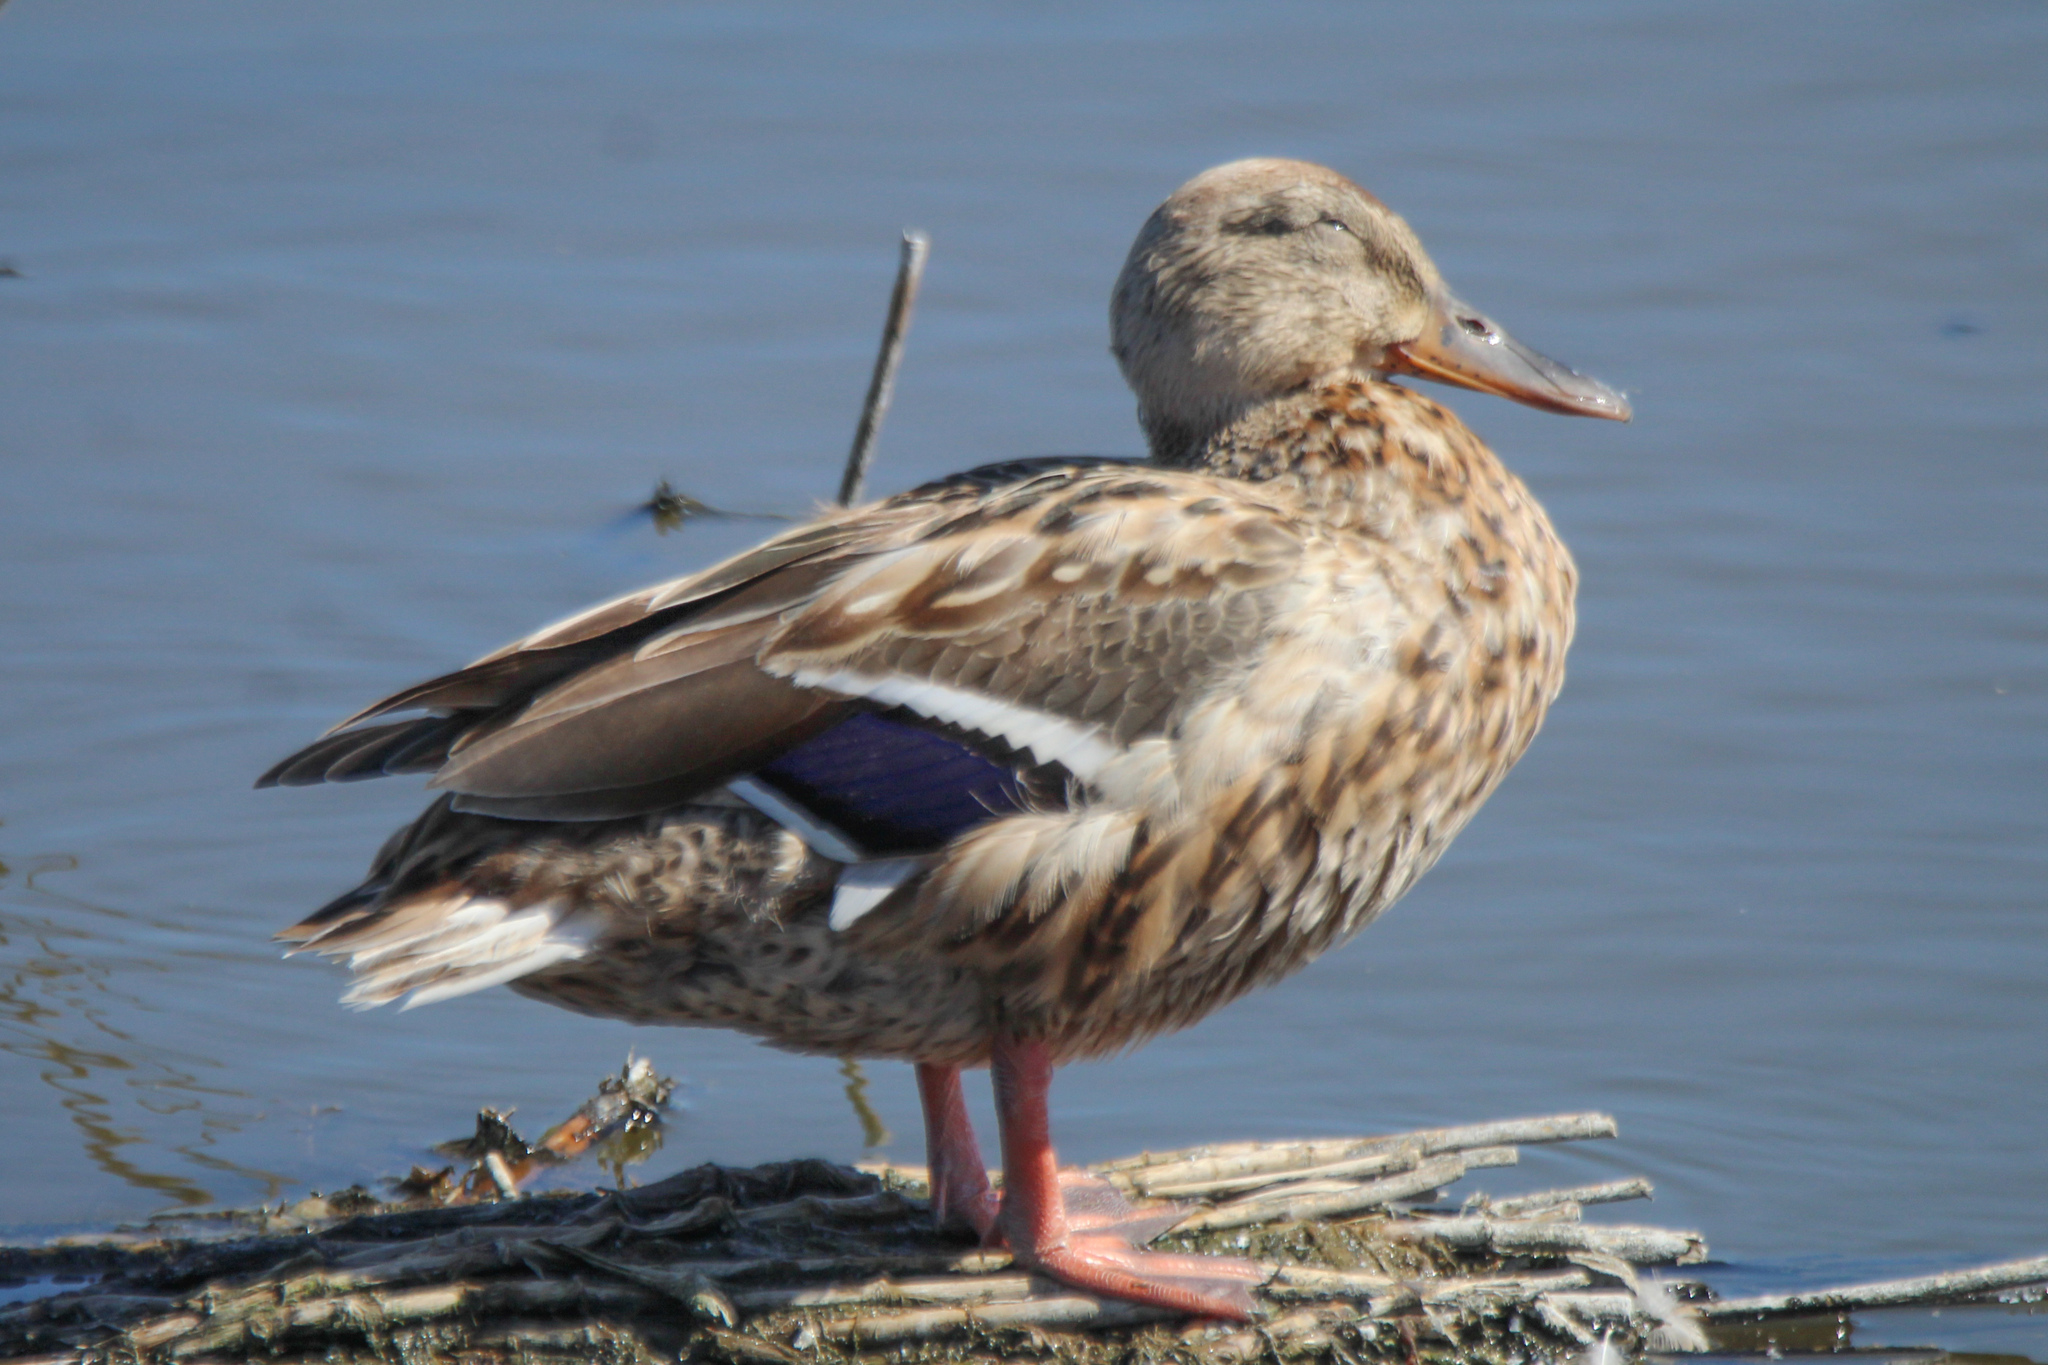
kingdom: Animalia
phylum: Chordata
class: Aves
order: Anseriformes
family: Anatidae
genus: Anas
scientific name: Anas platyrhynchos
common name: Mallard
